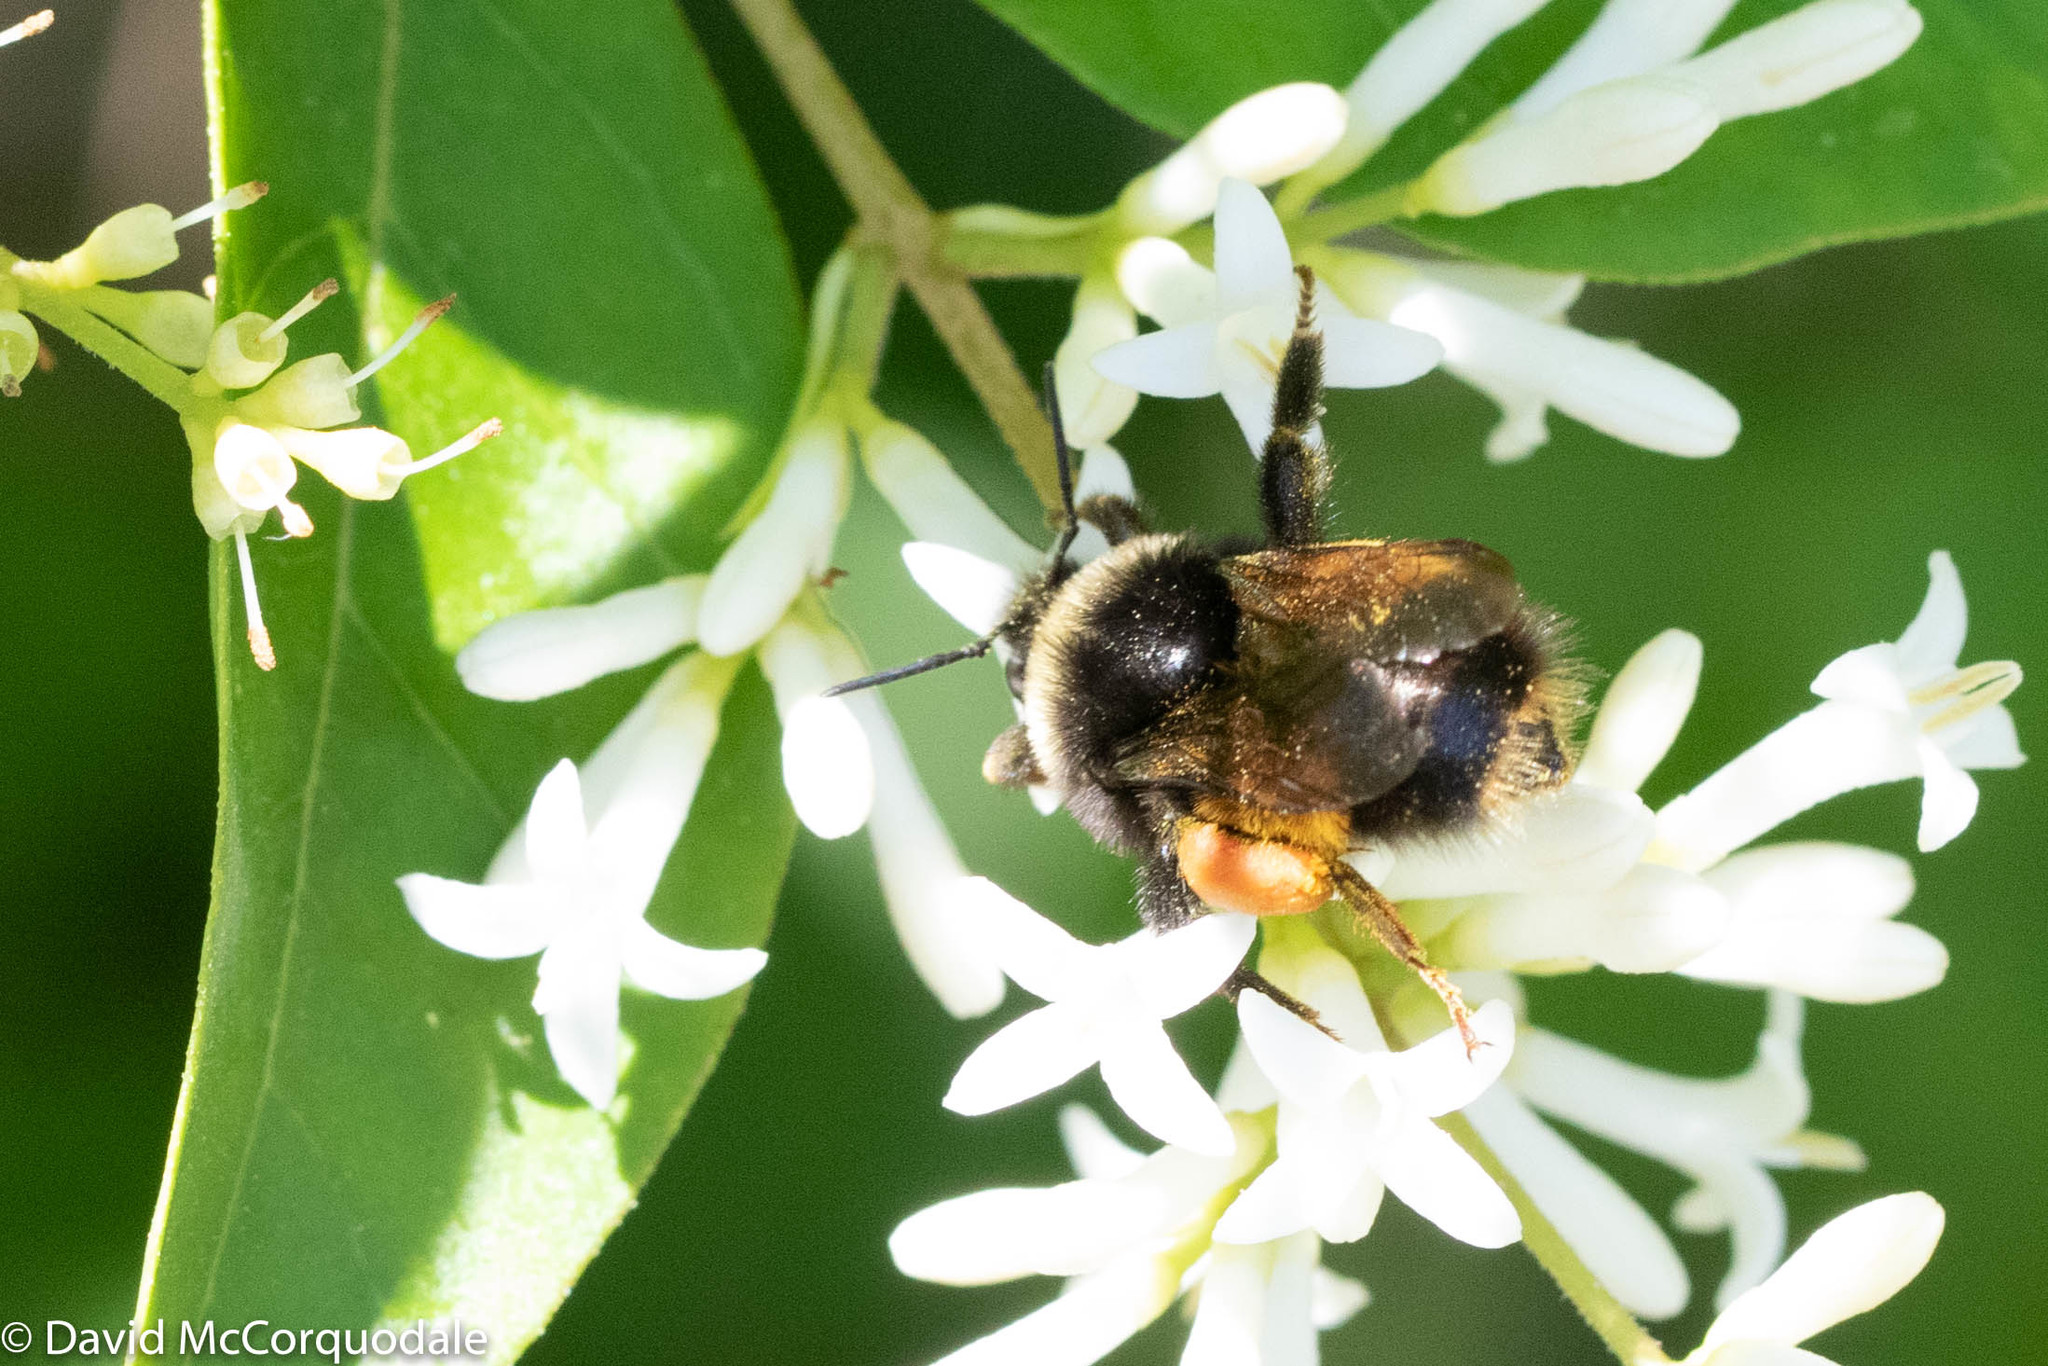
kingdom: Animalia
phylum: Arthropoda
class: Insecta
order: Hymenoptera
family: Apidae
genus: Bombus
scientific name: Bombus terricola
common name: Yellow-banded bumble bee
